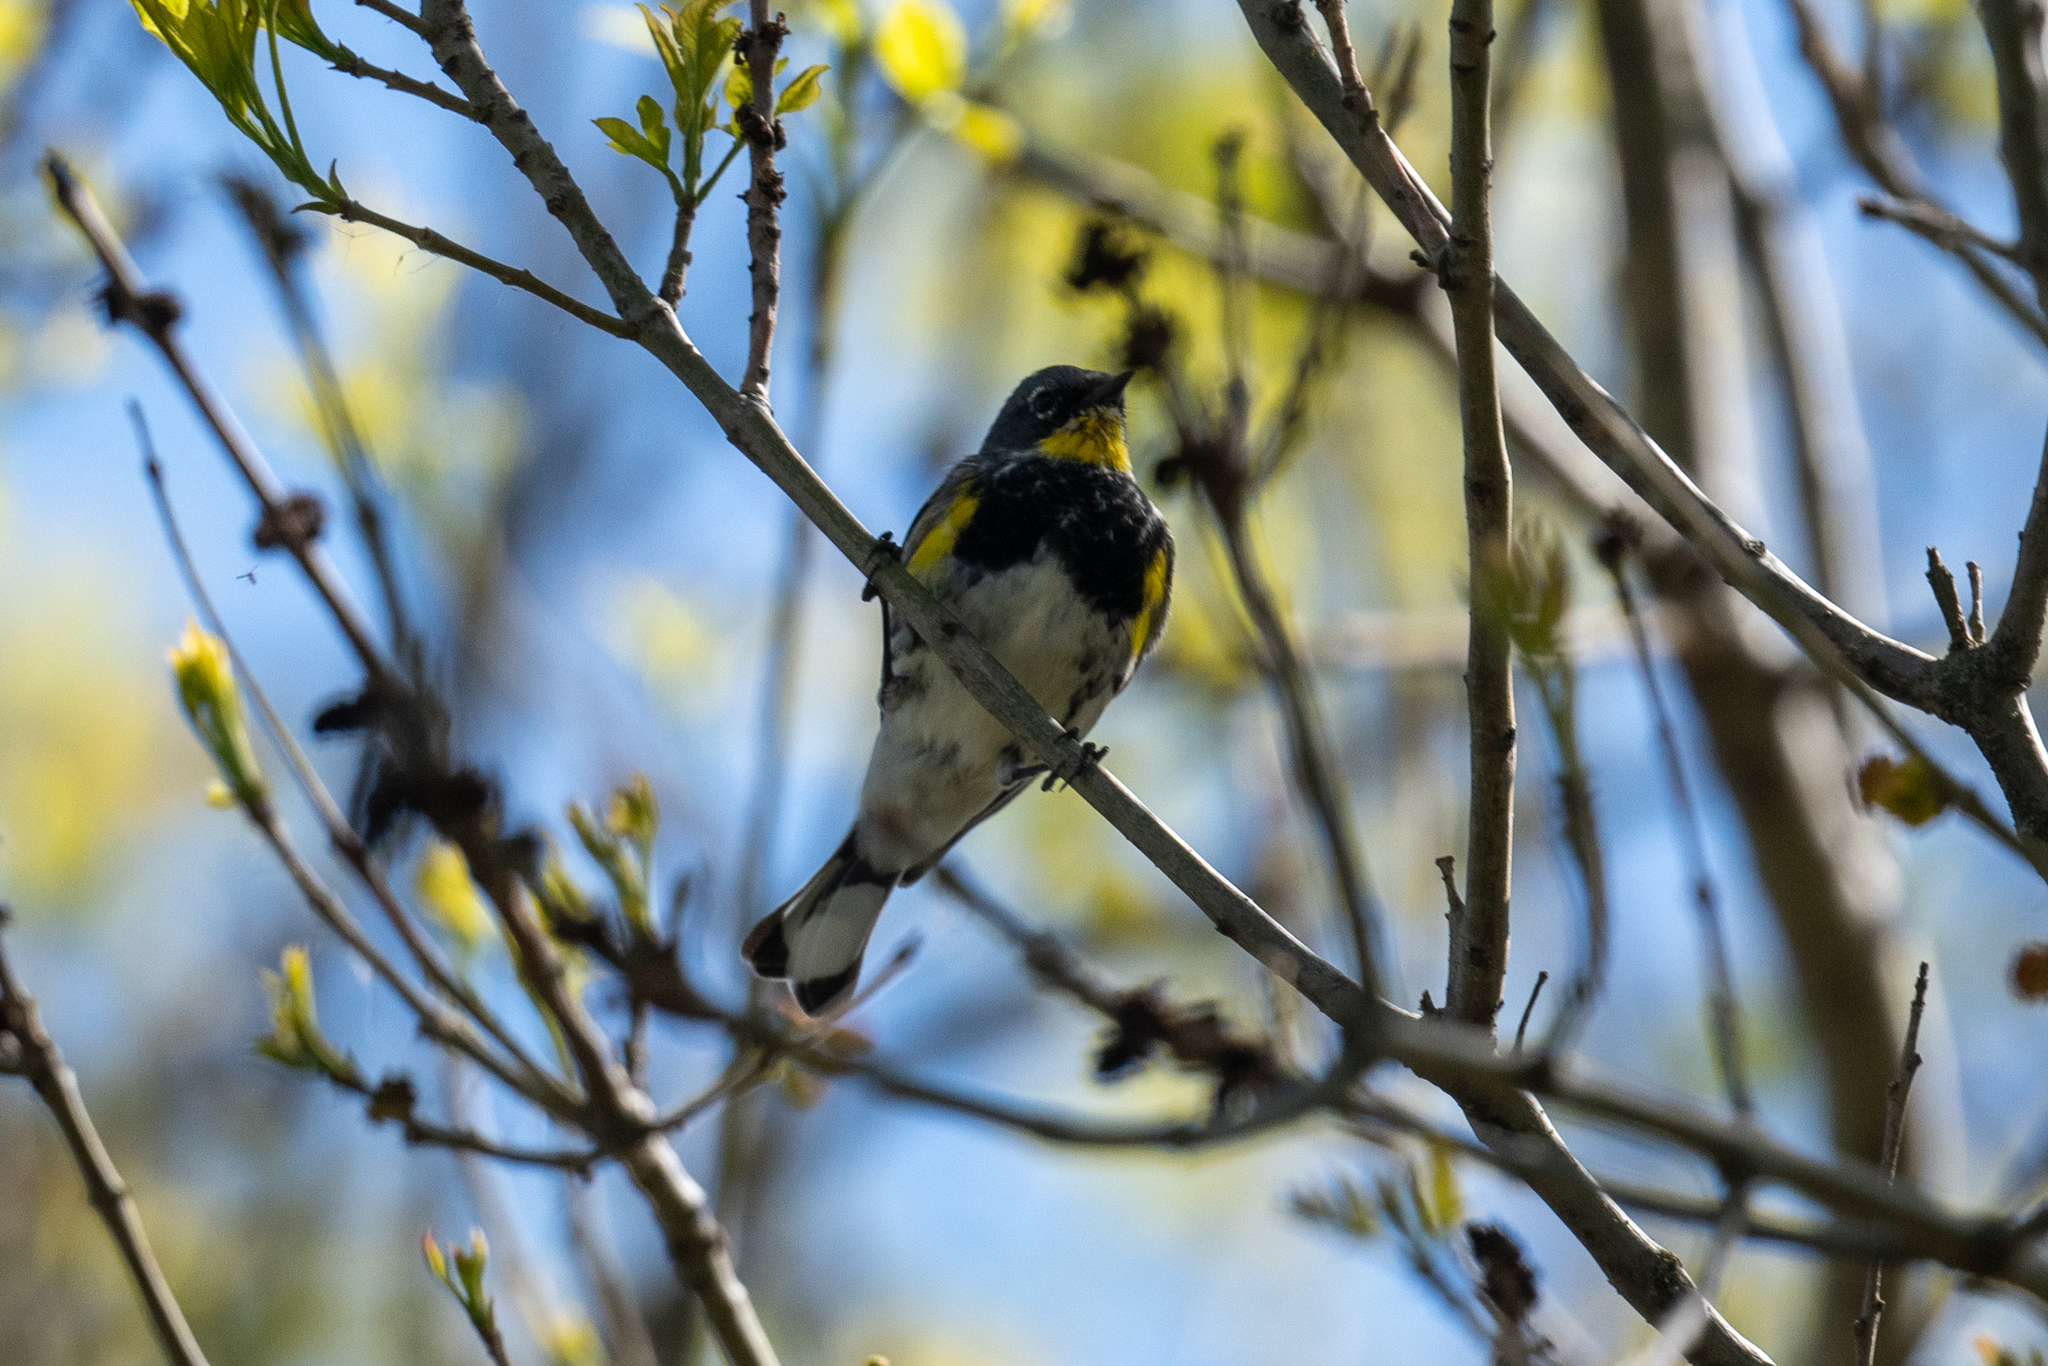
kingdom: Animalia
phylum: Chordata
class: Aves
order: Passeriformes
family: Parulidae
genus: Setophaga
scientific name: Setophaga coronata
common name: Myrtle warbler
